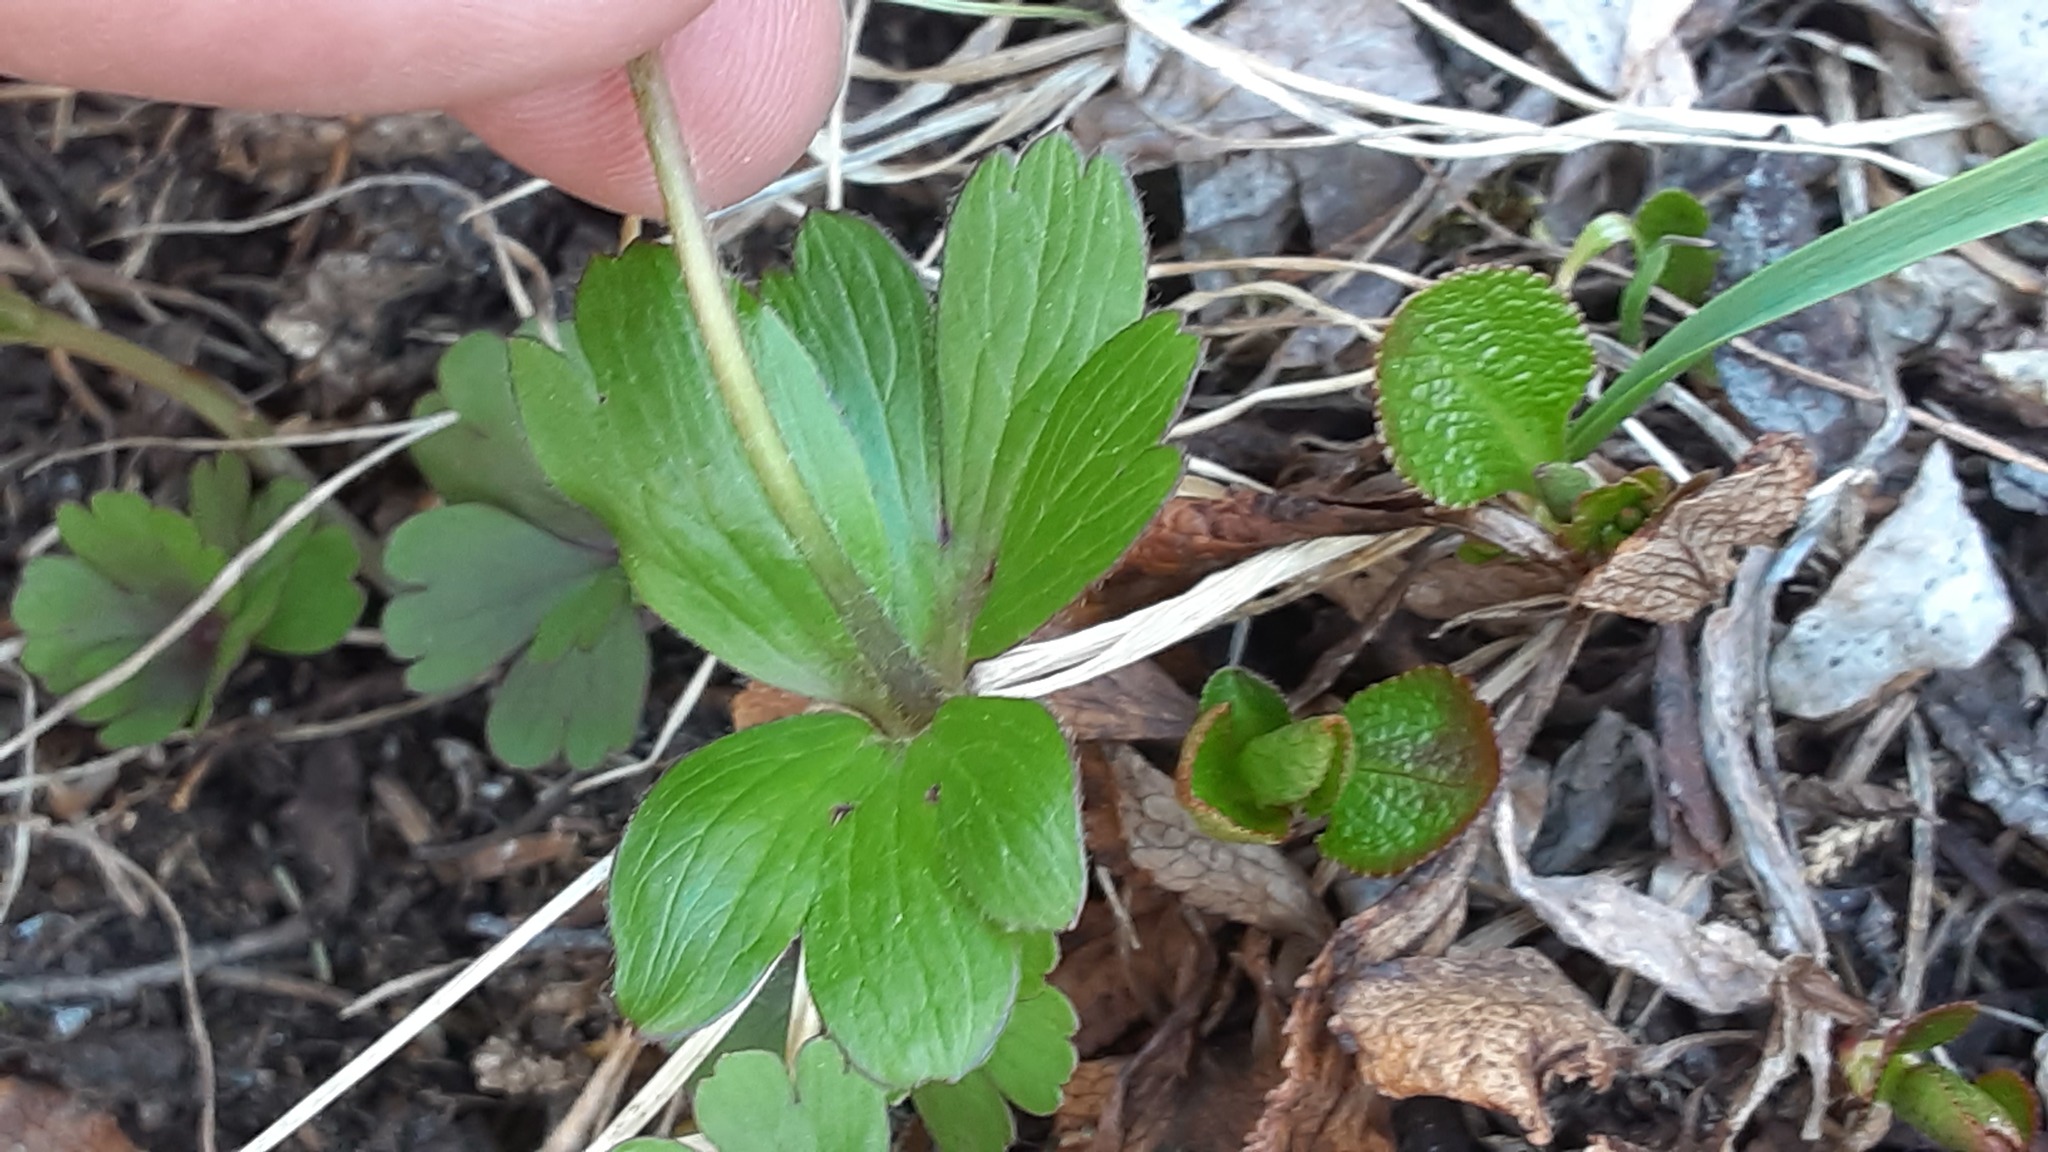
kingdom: Plantae
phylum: Tracheophyta
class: Magnoliopsida
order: Ranunculales
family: Ranunculaceae
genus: Anemone
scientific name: Anemone parviflora
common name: Northern anemone
